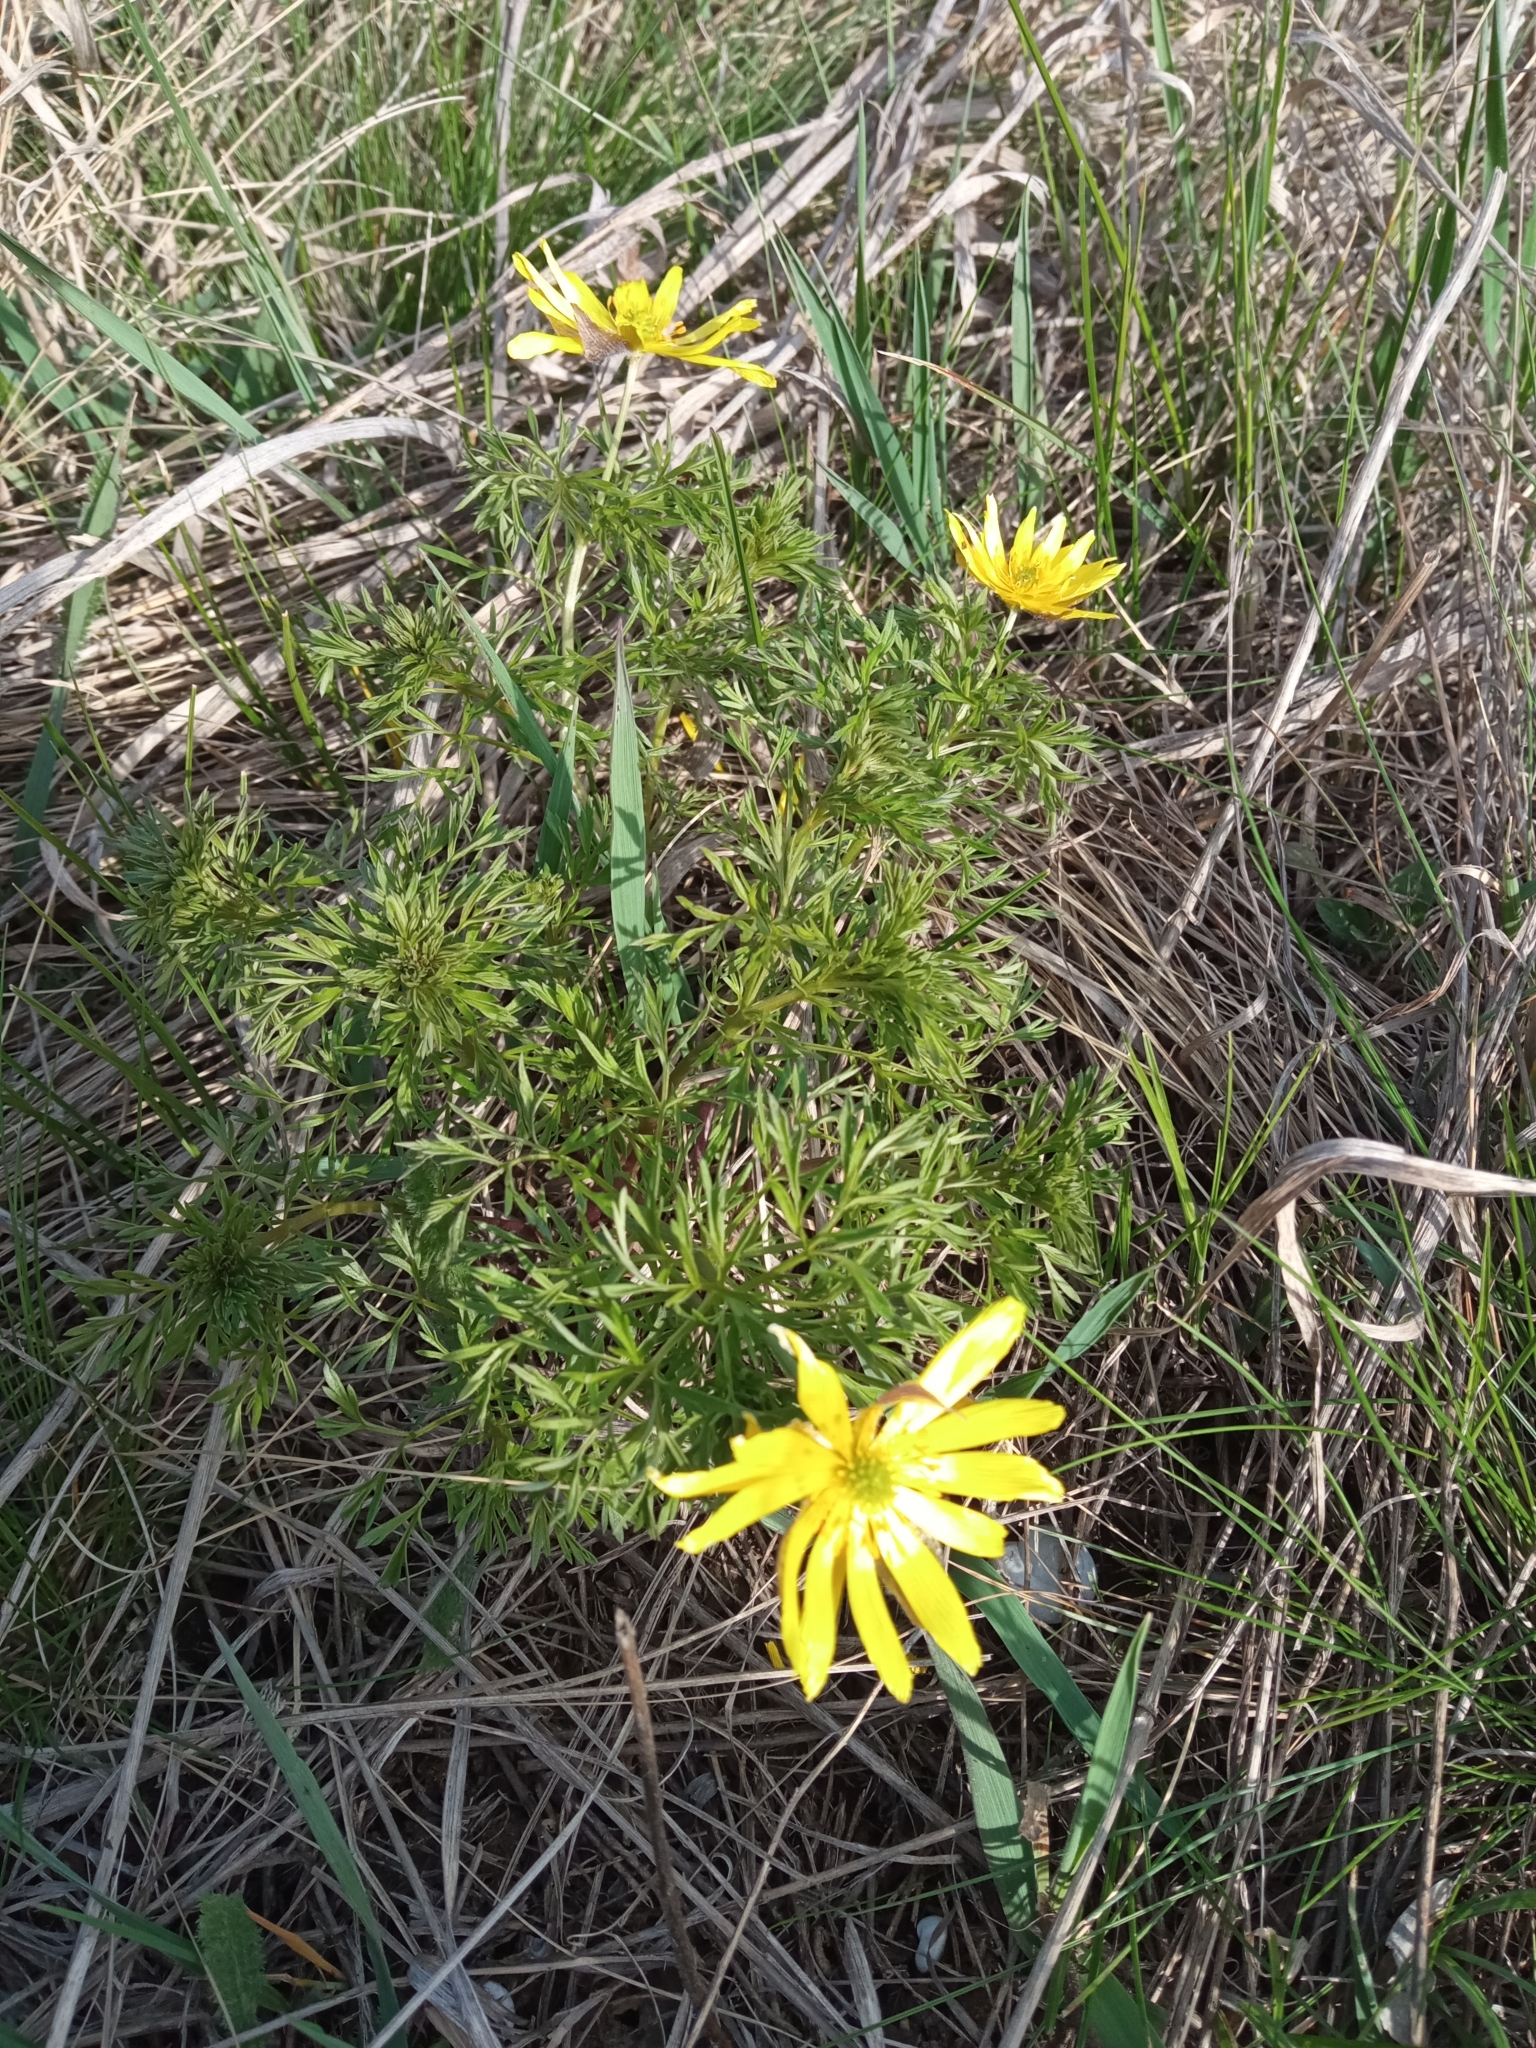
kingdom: Plantae
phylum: Tracheophyta
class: Magnoliopsida
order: Ranunculales
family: Ranunculaceae
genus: Adonis
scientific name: Adonis volgensis
